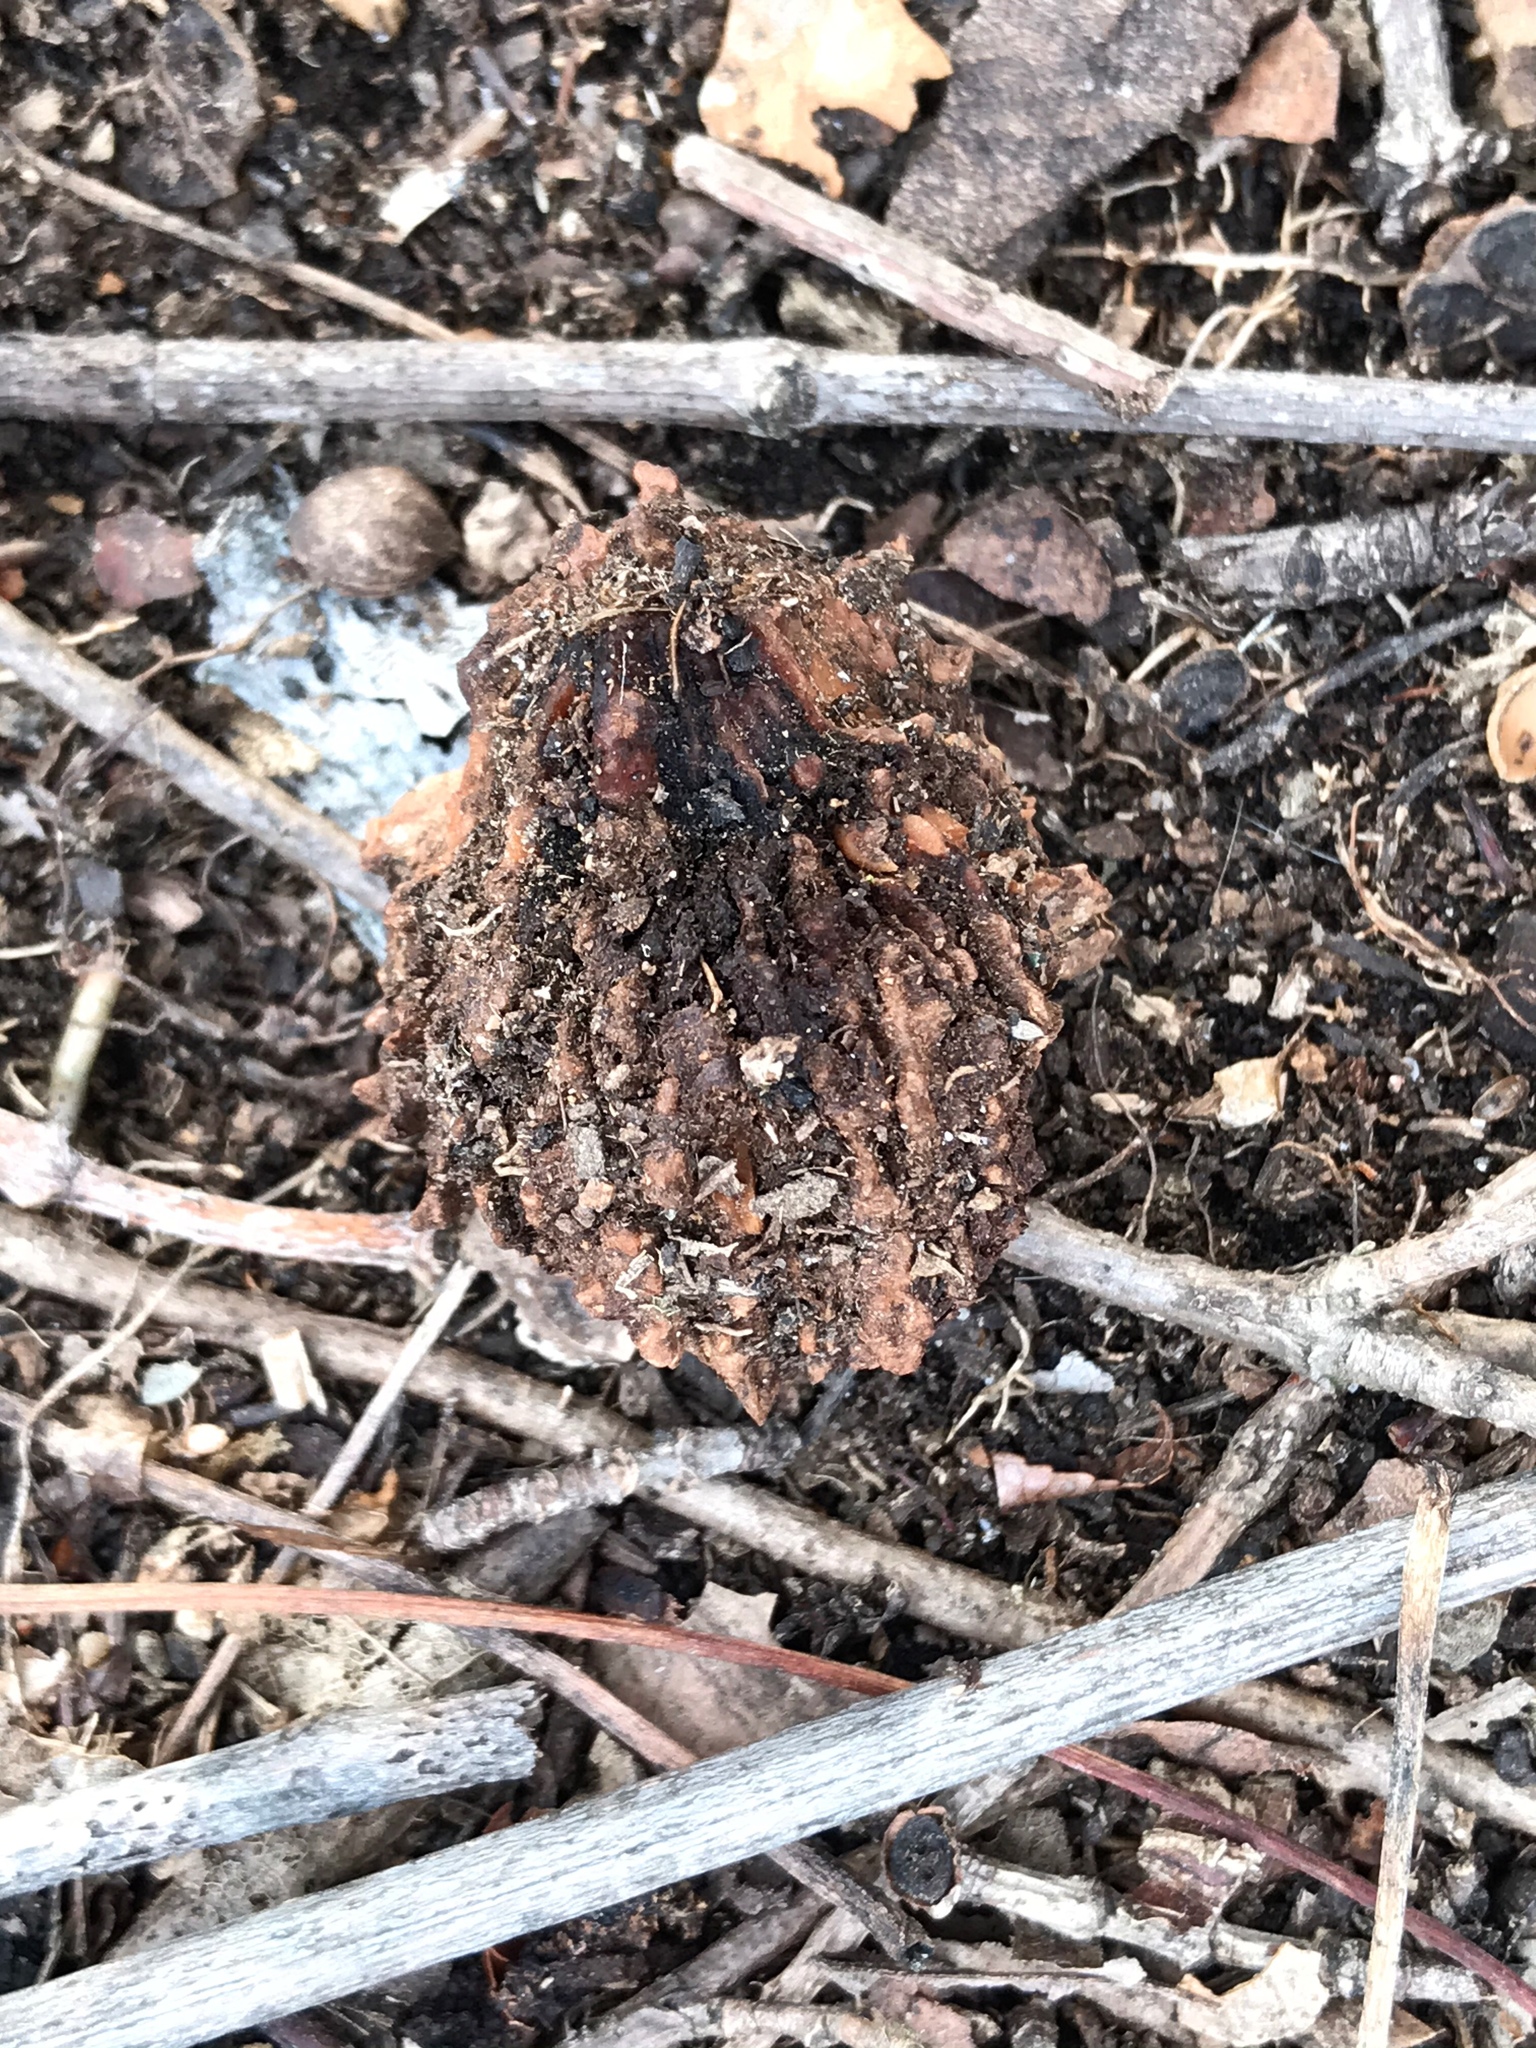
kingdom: Plantae
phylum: Tracheophyta
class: Magnoliopsida
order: Fagales
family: Juglandaceae
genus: Juglans
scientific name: Juglans nigra
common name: Black walnut
